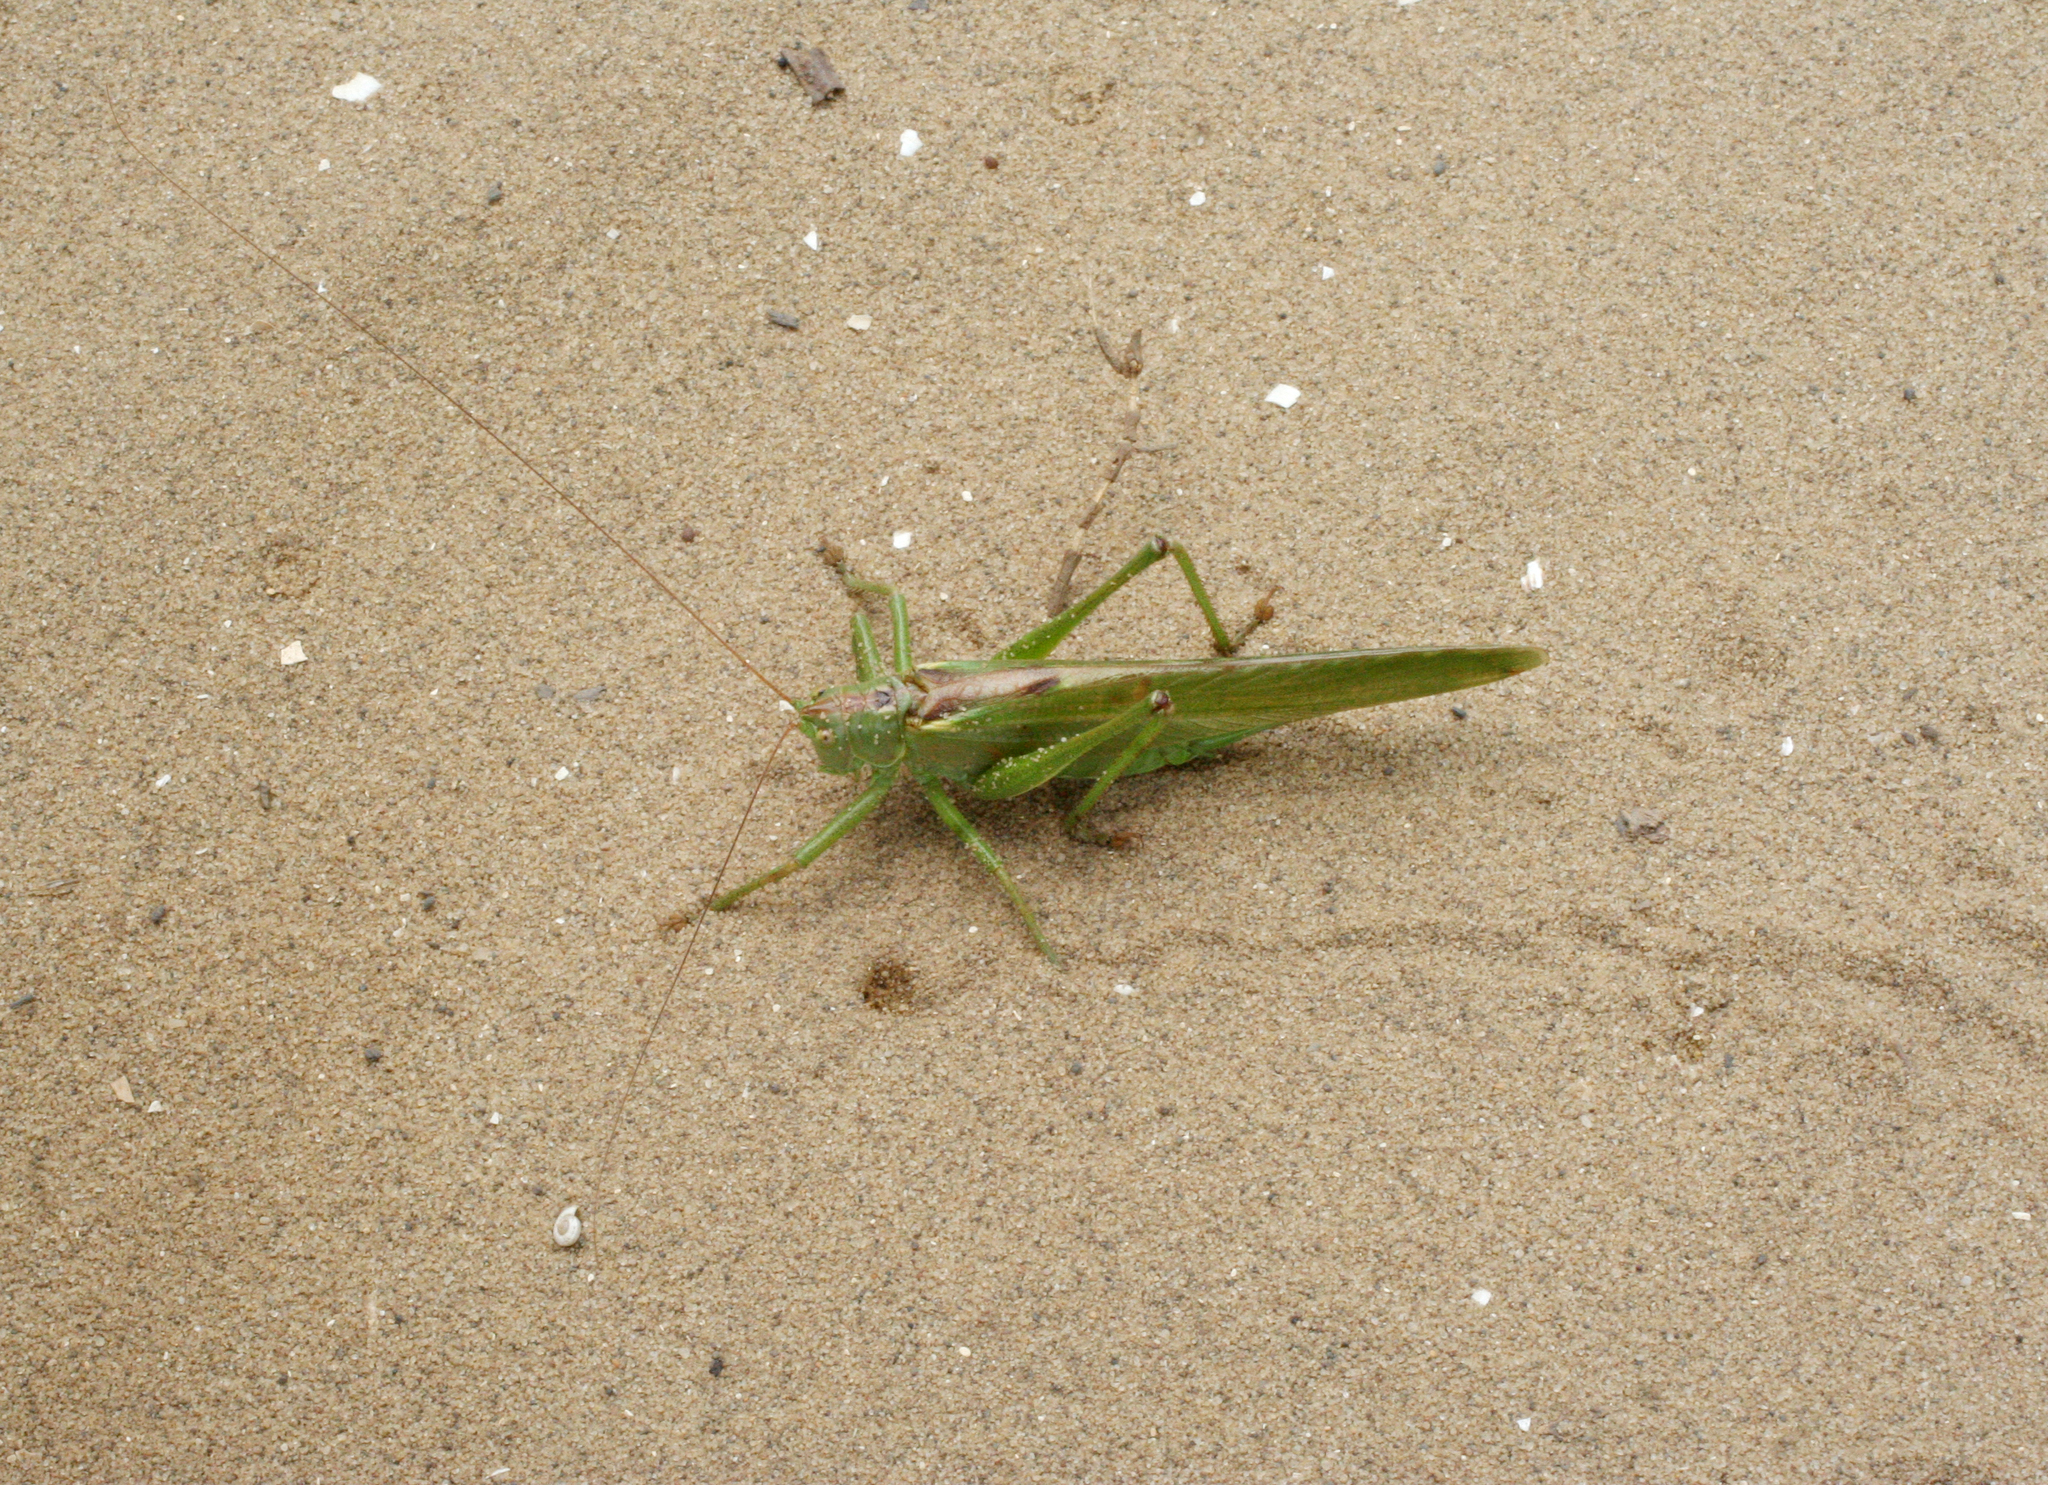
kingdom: Animalia
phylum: Arthropoda
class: Insecta
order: Orthoptera
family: Tettigoniidae
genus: Tettigonia
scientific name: Tettigonia viridissima
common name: Great green bush-cricket
